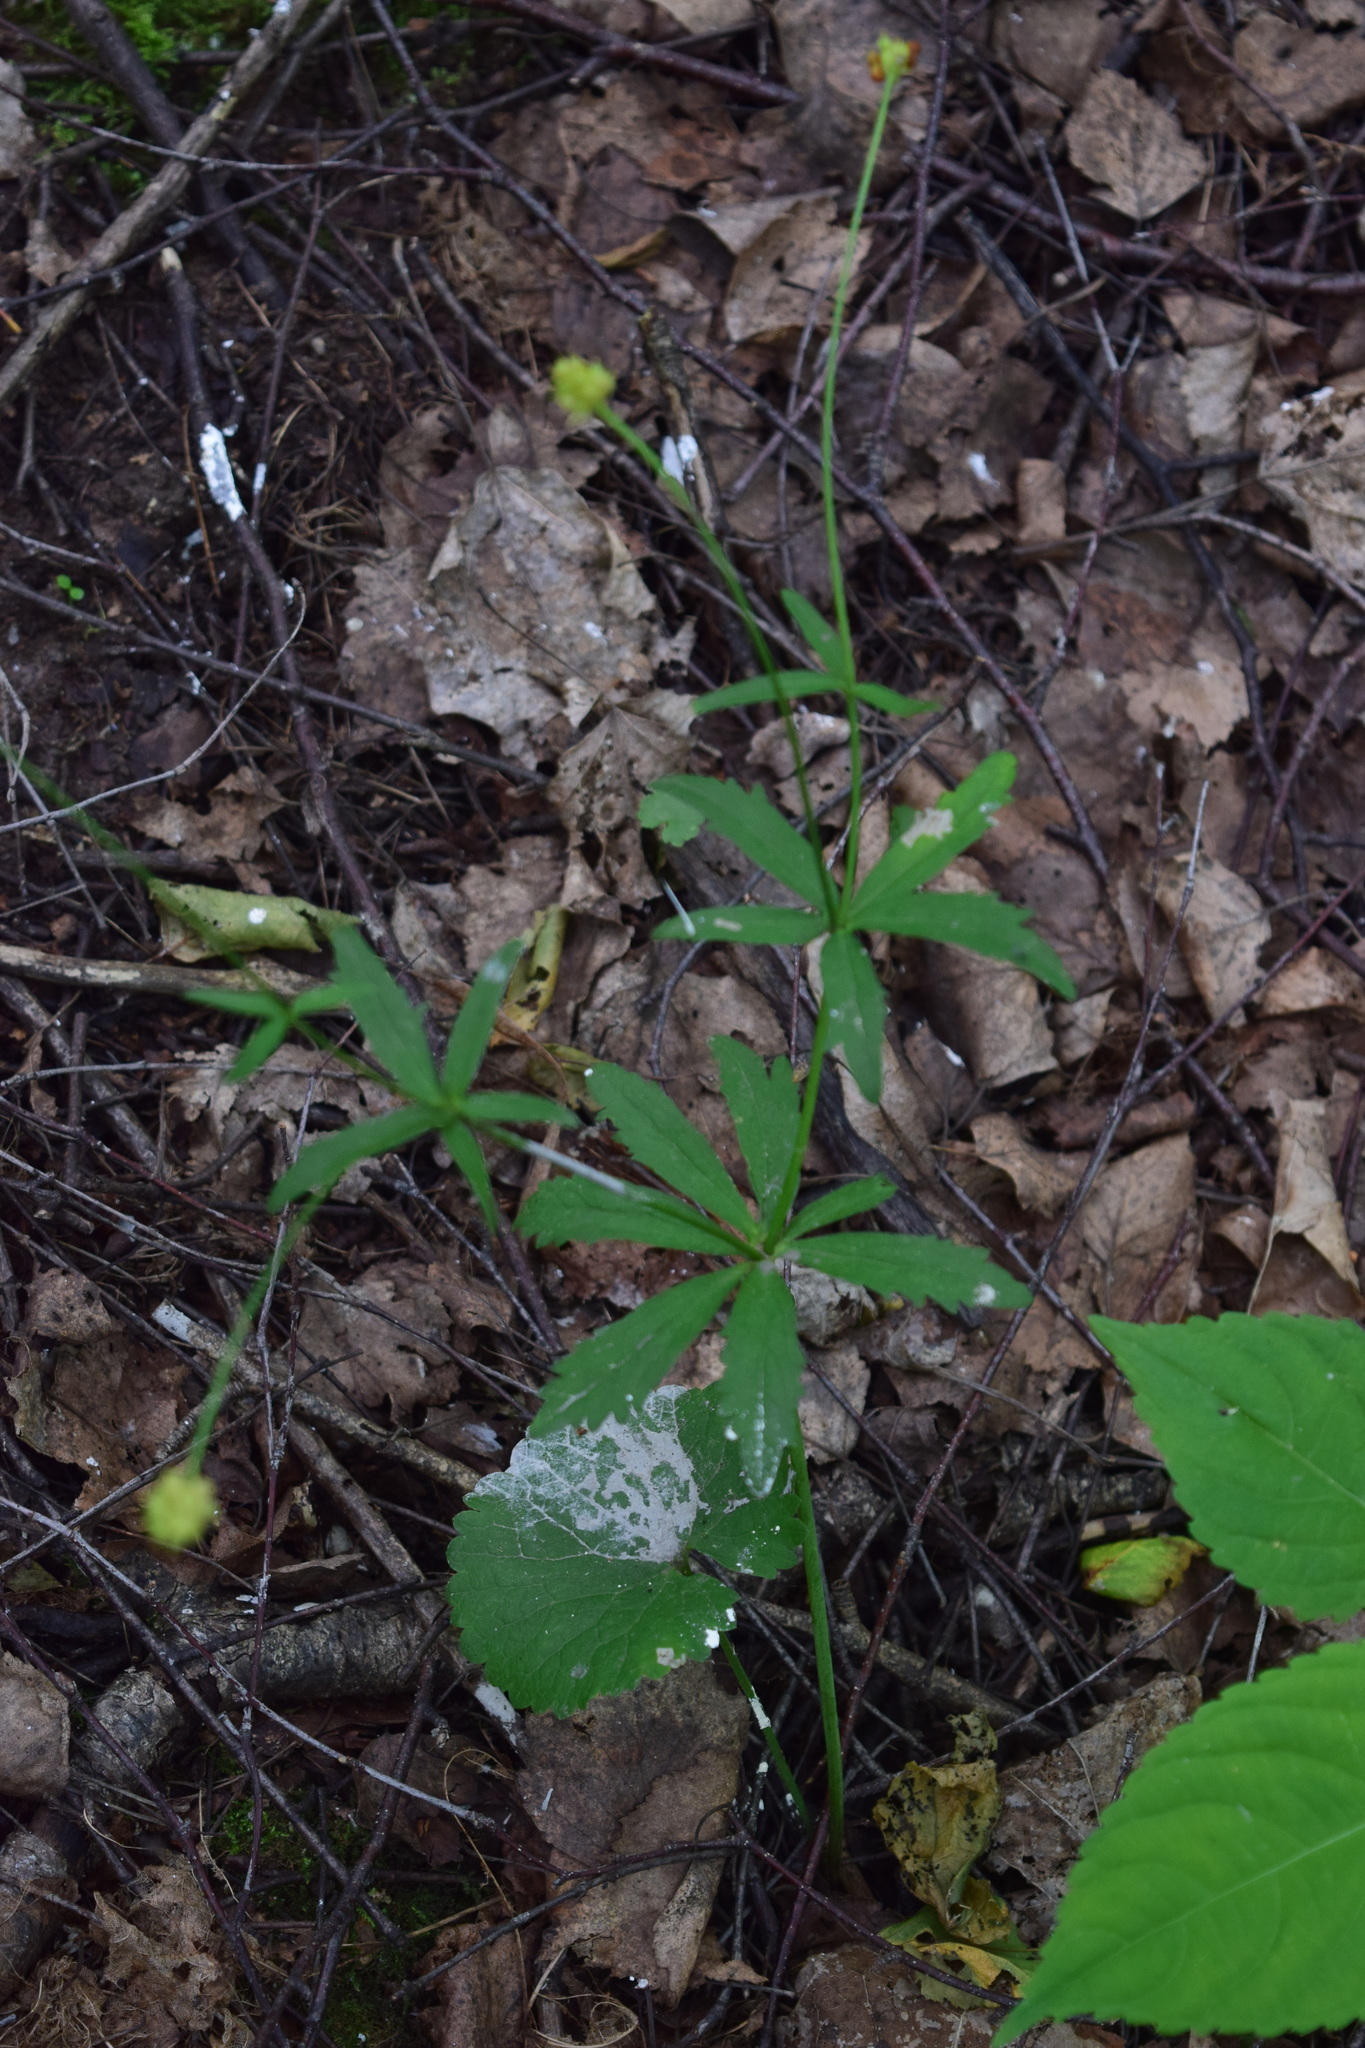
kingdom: Plantae
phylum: Tracheophyta
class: Magnoliopsida
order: Ranunculales
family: Ranunculaceae
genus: Ranunculus
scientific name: Ranunculus cassubicus
